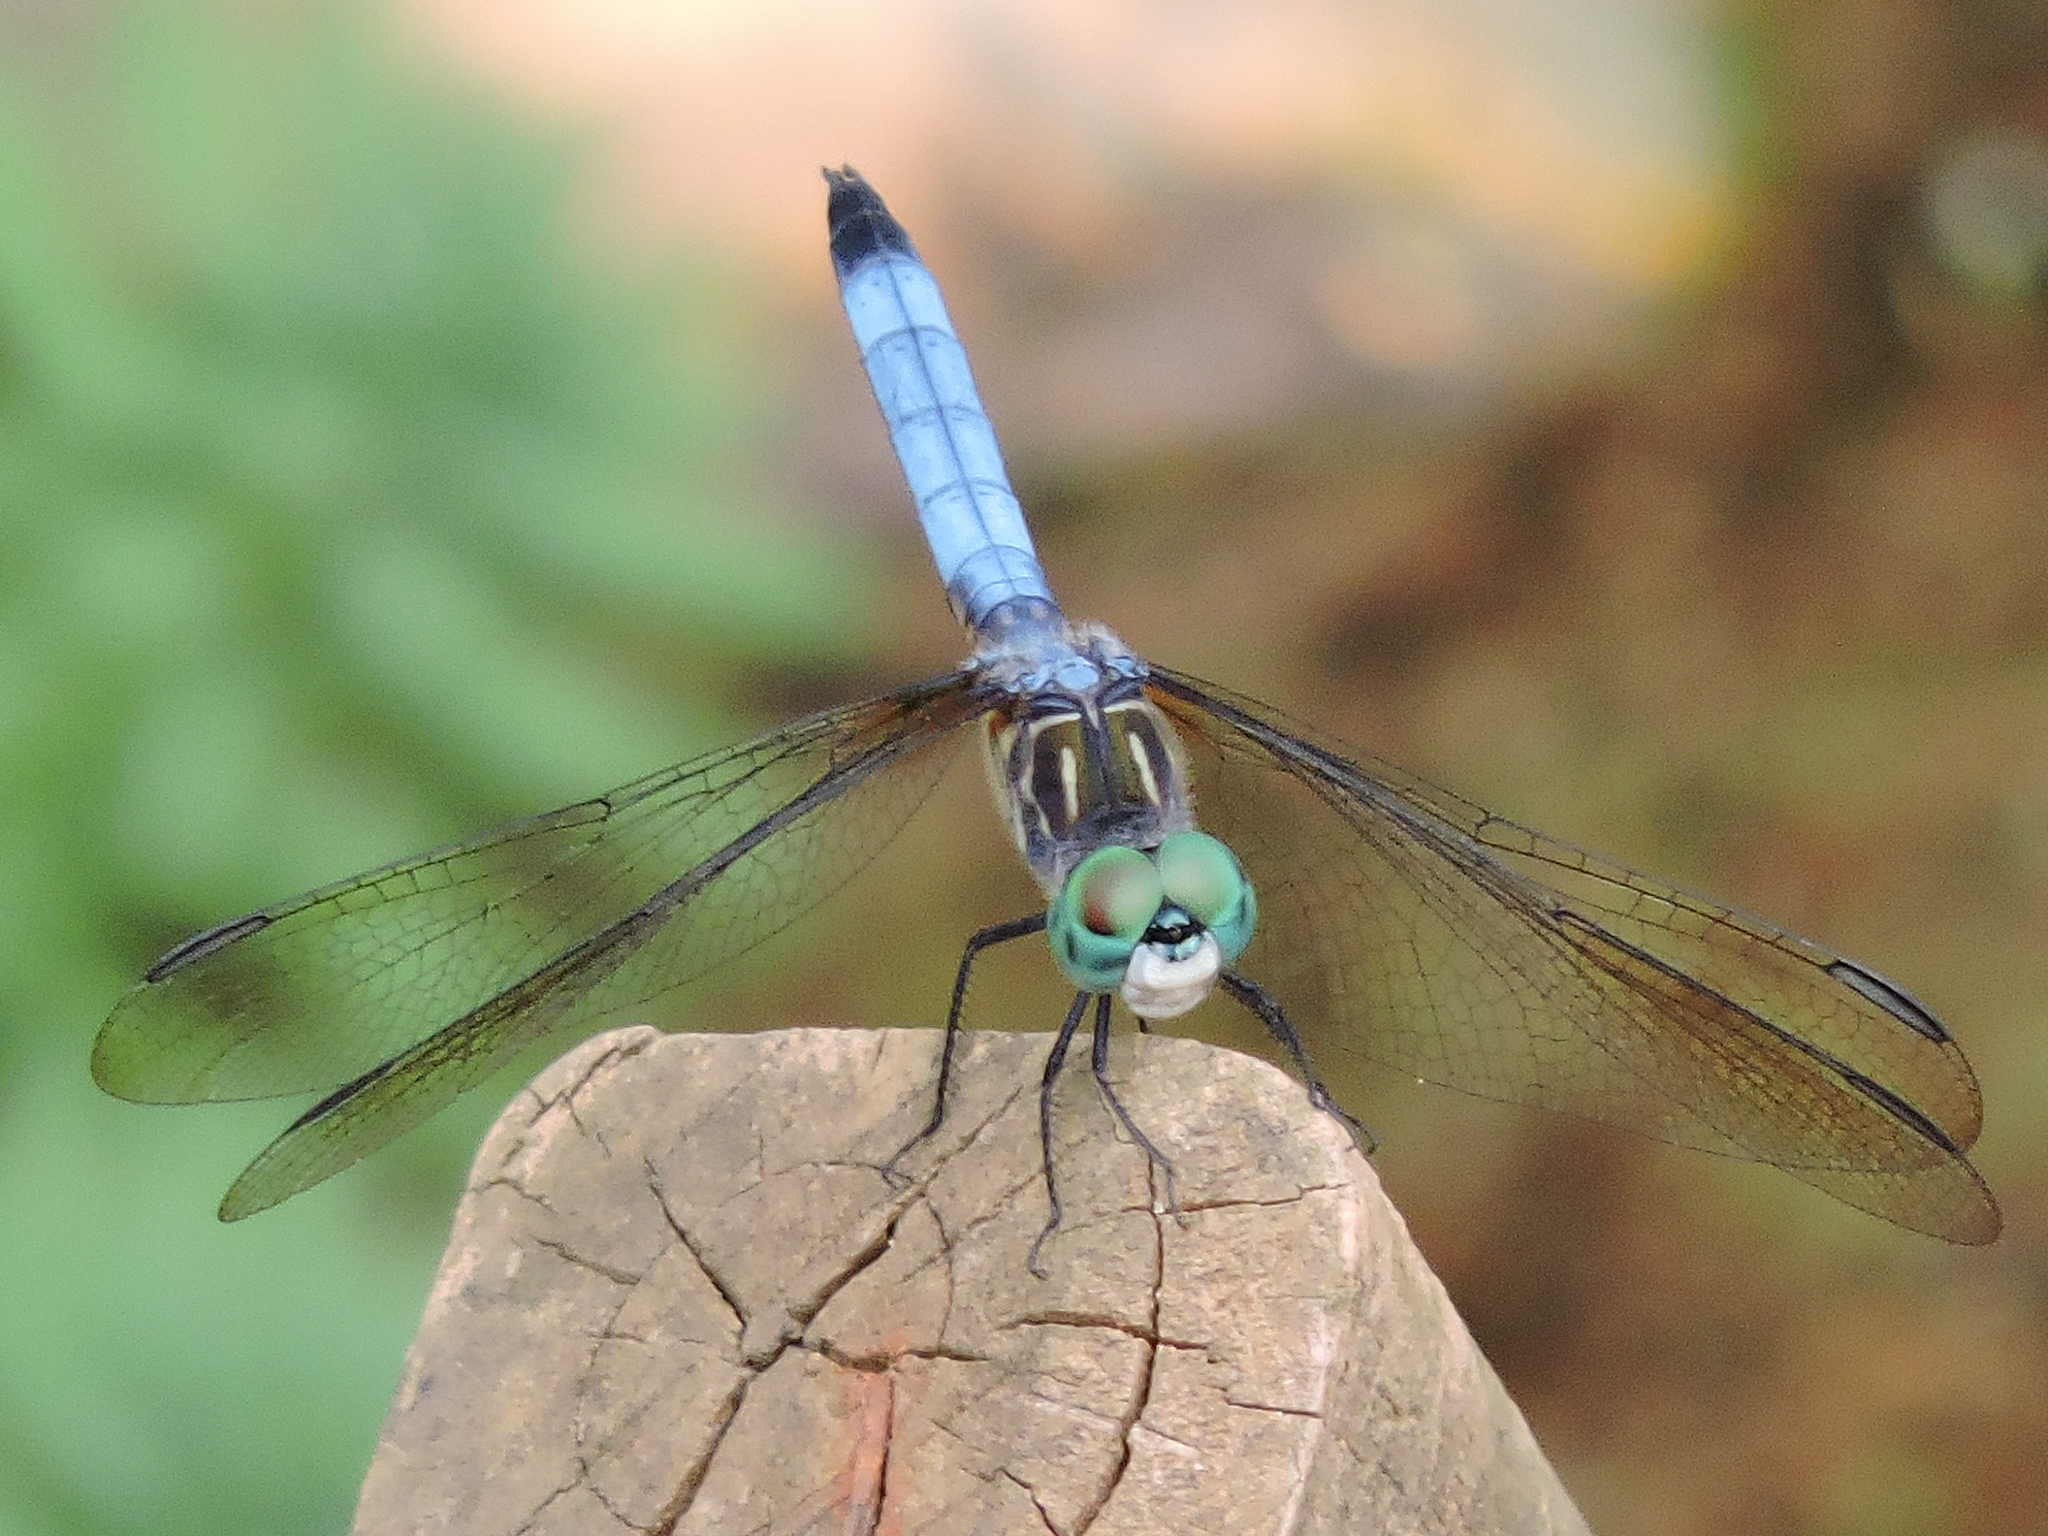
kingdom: Animalia
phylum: Arthropoda
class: Insecta
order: Odonata
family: Libellulidae
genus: Pachydiplax
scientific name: Pachydiplax longipennis
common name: Blue dasher
